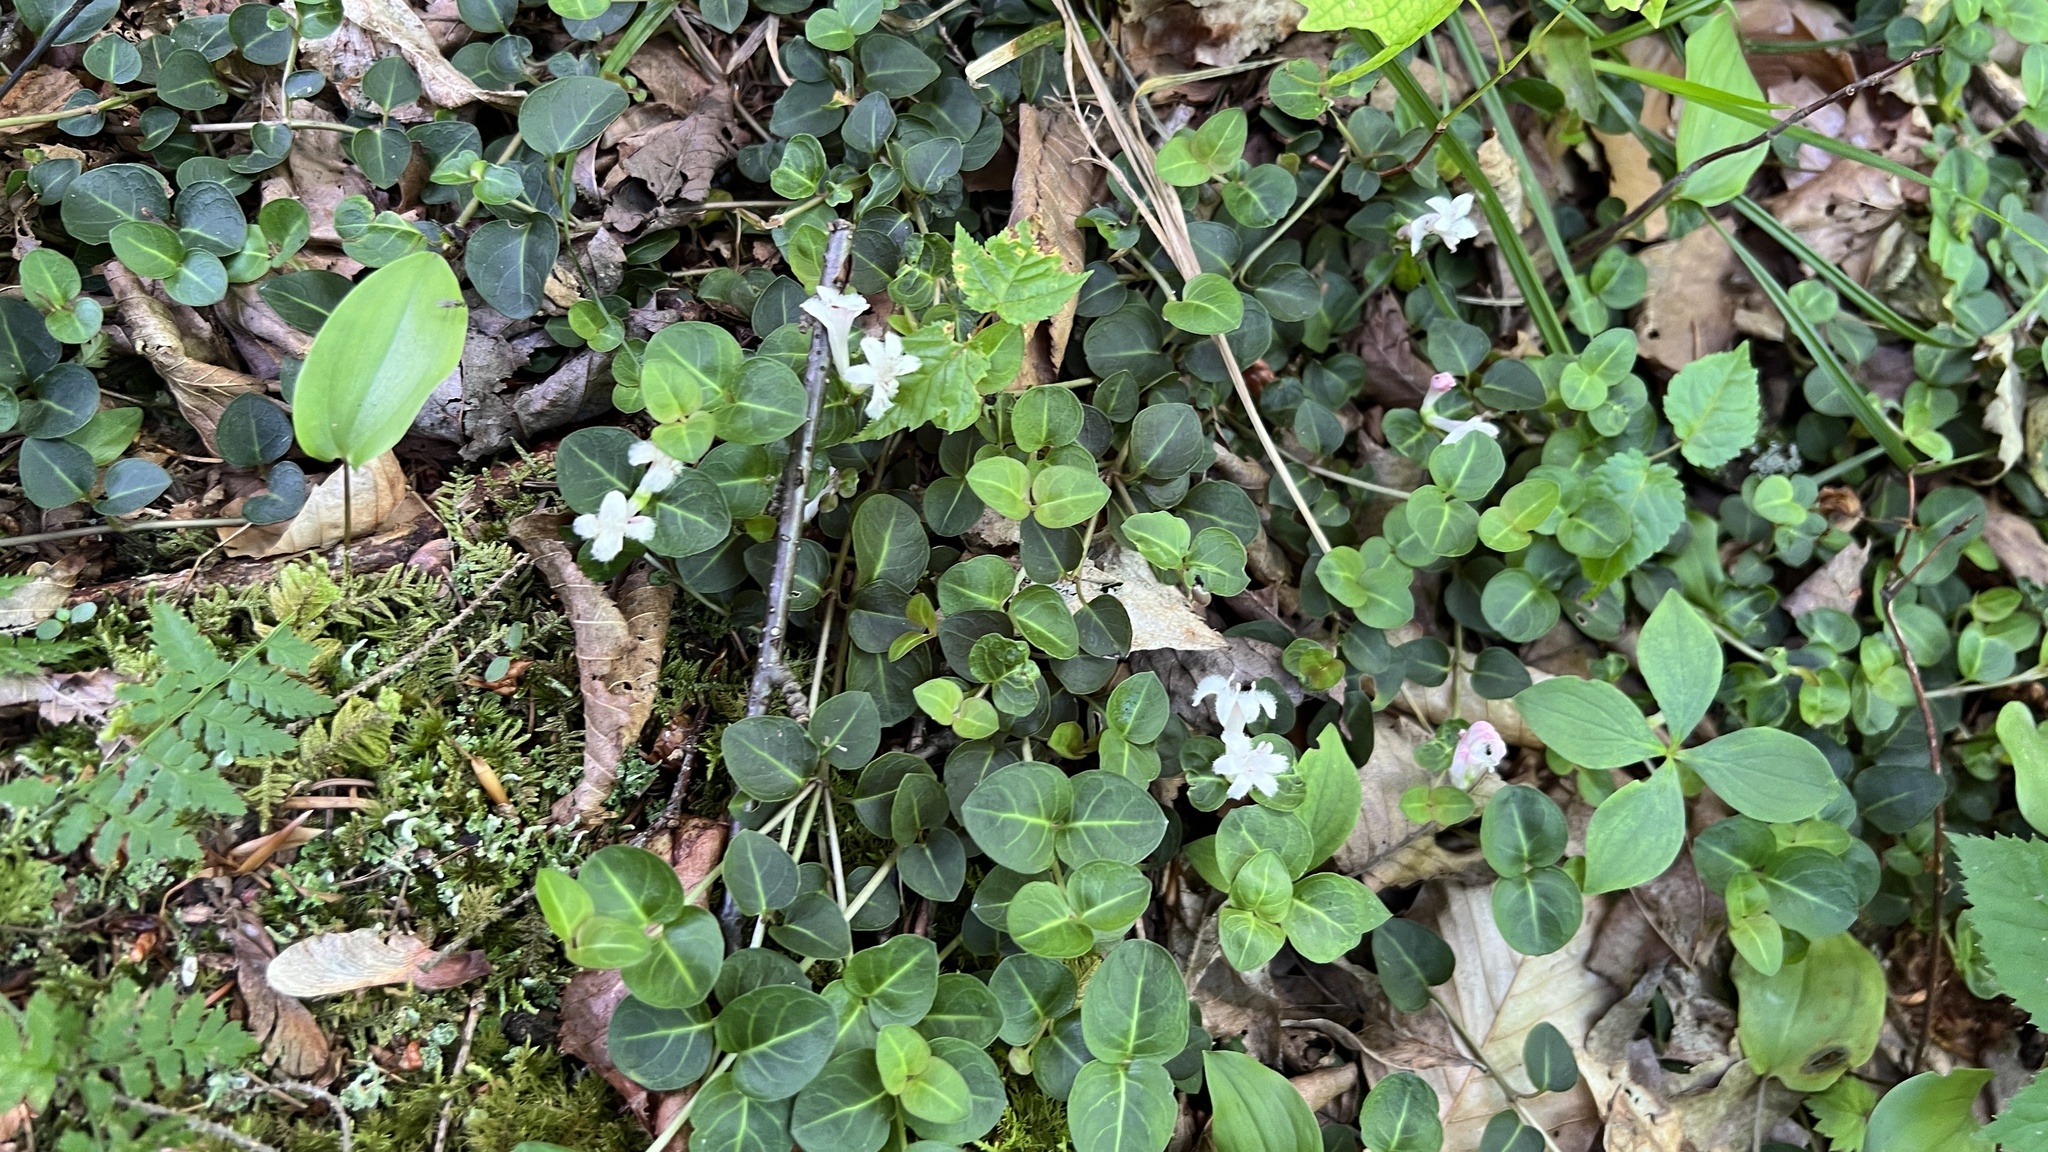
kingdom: Plantae
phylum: Tracheophyta
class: Magnoliopsida
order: Gentianales
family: Rubiaceae
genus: Mitchella
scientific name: Mitchella repens
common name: Partridge-berry
